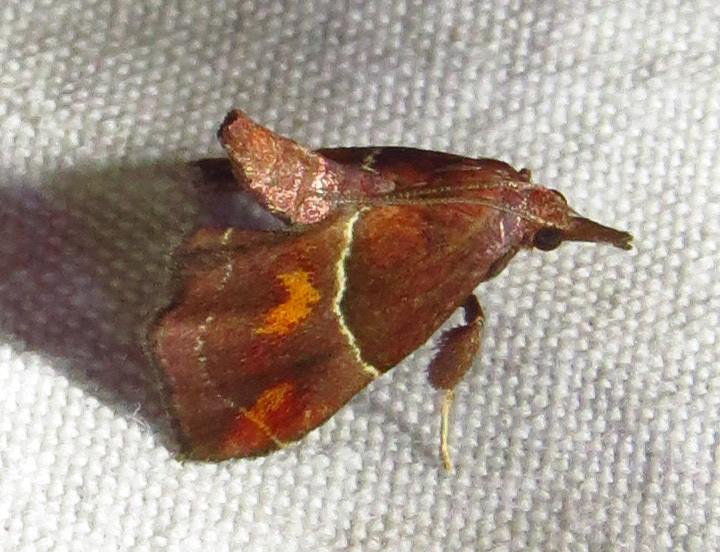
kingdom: Animalia
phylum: Arthropoda
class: Insecta
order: Lepidoptera
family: Pyralidae
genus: Penthesilea
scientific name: Penthesilea sacculalis
